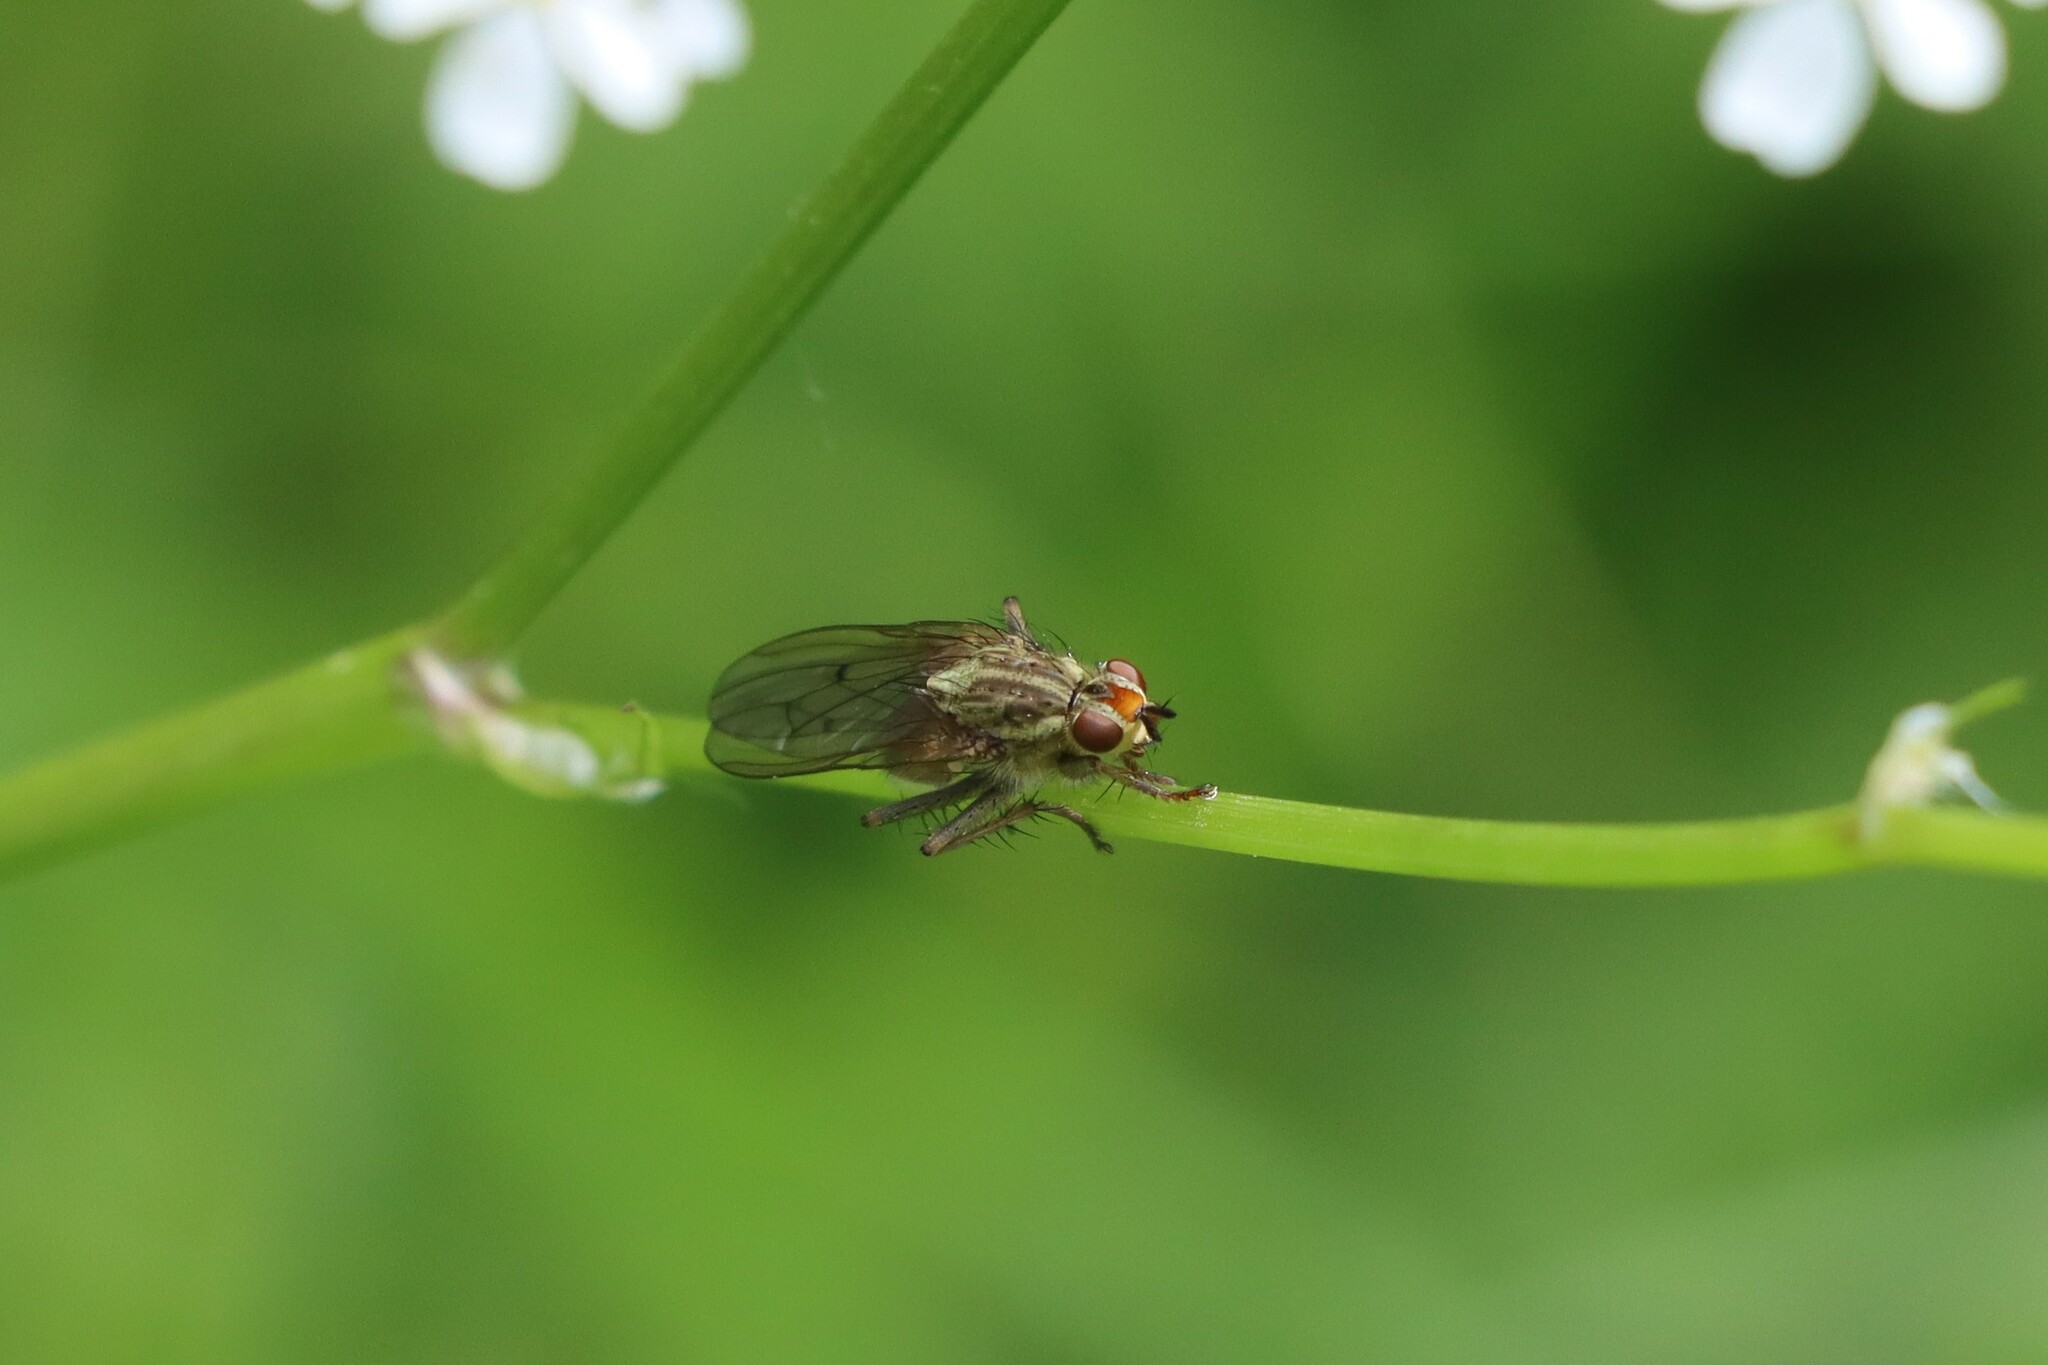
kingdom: Animalia
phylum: Arthropoda
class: Insecta
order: Diptera
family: Scathophagidae
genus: Scathophaga
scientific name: Scathophaga stercoraria
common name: Yellow dung fly
